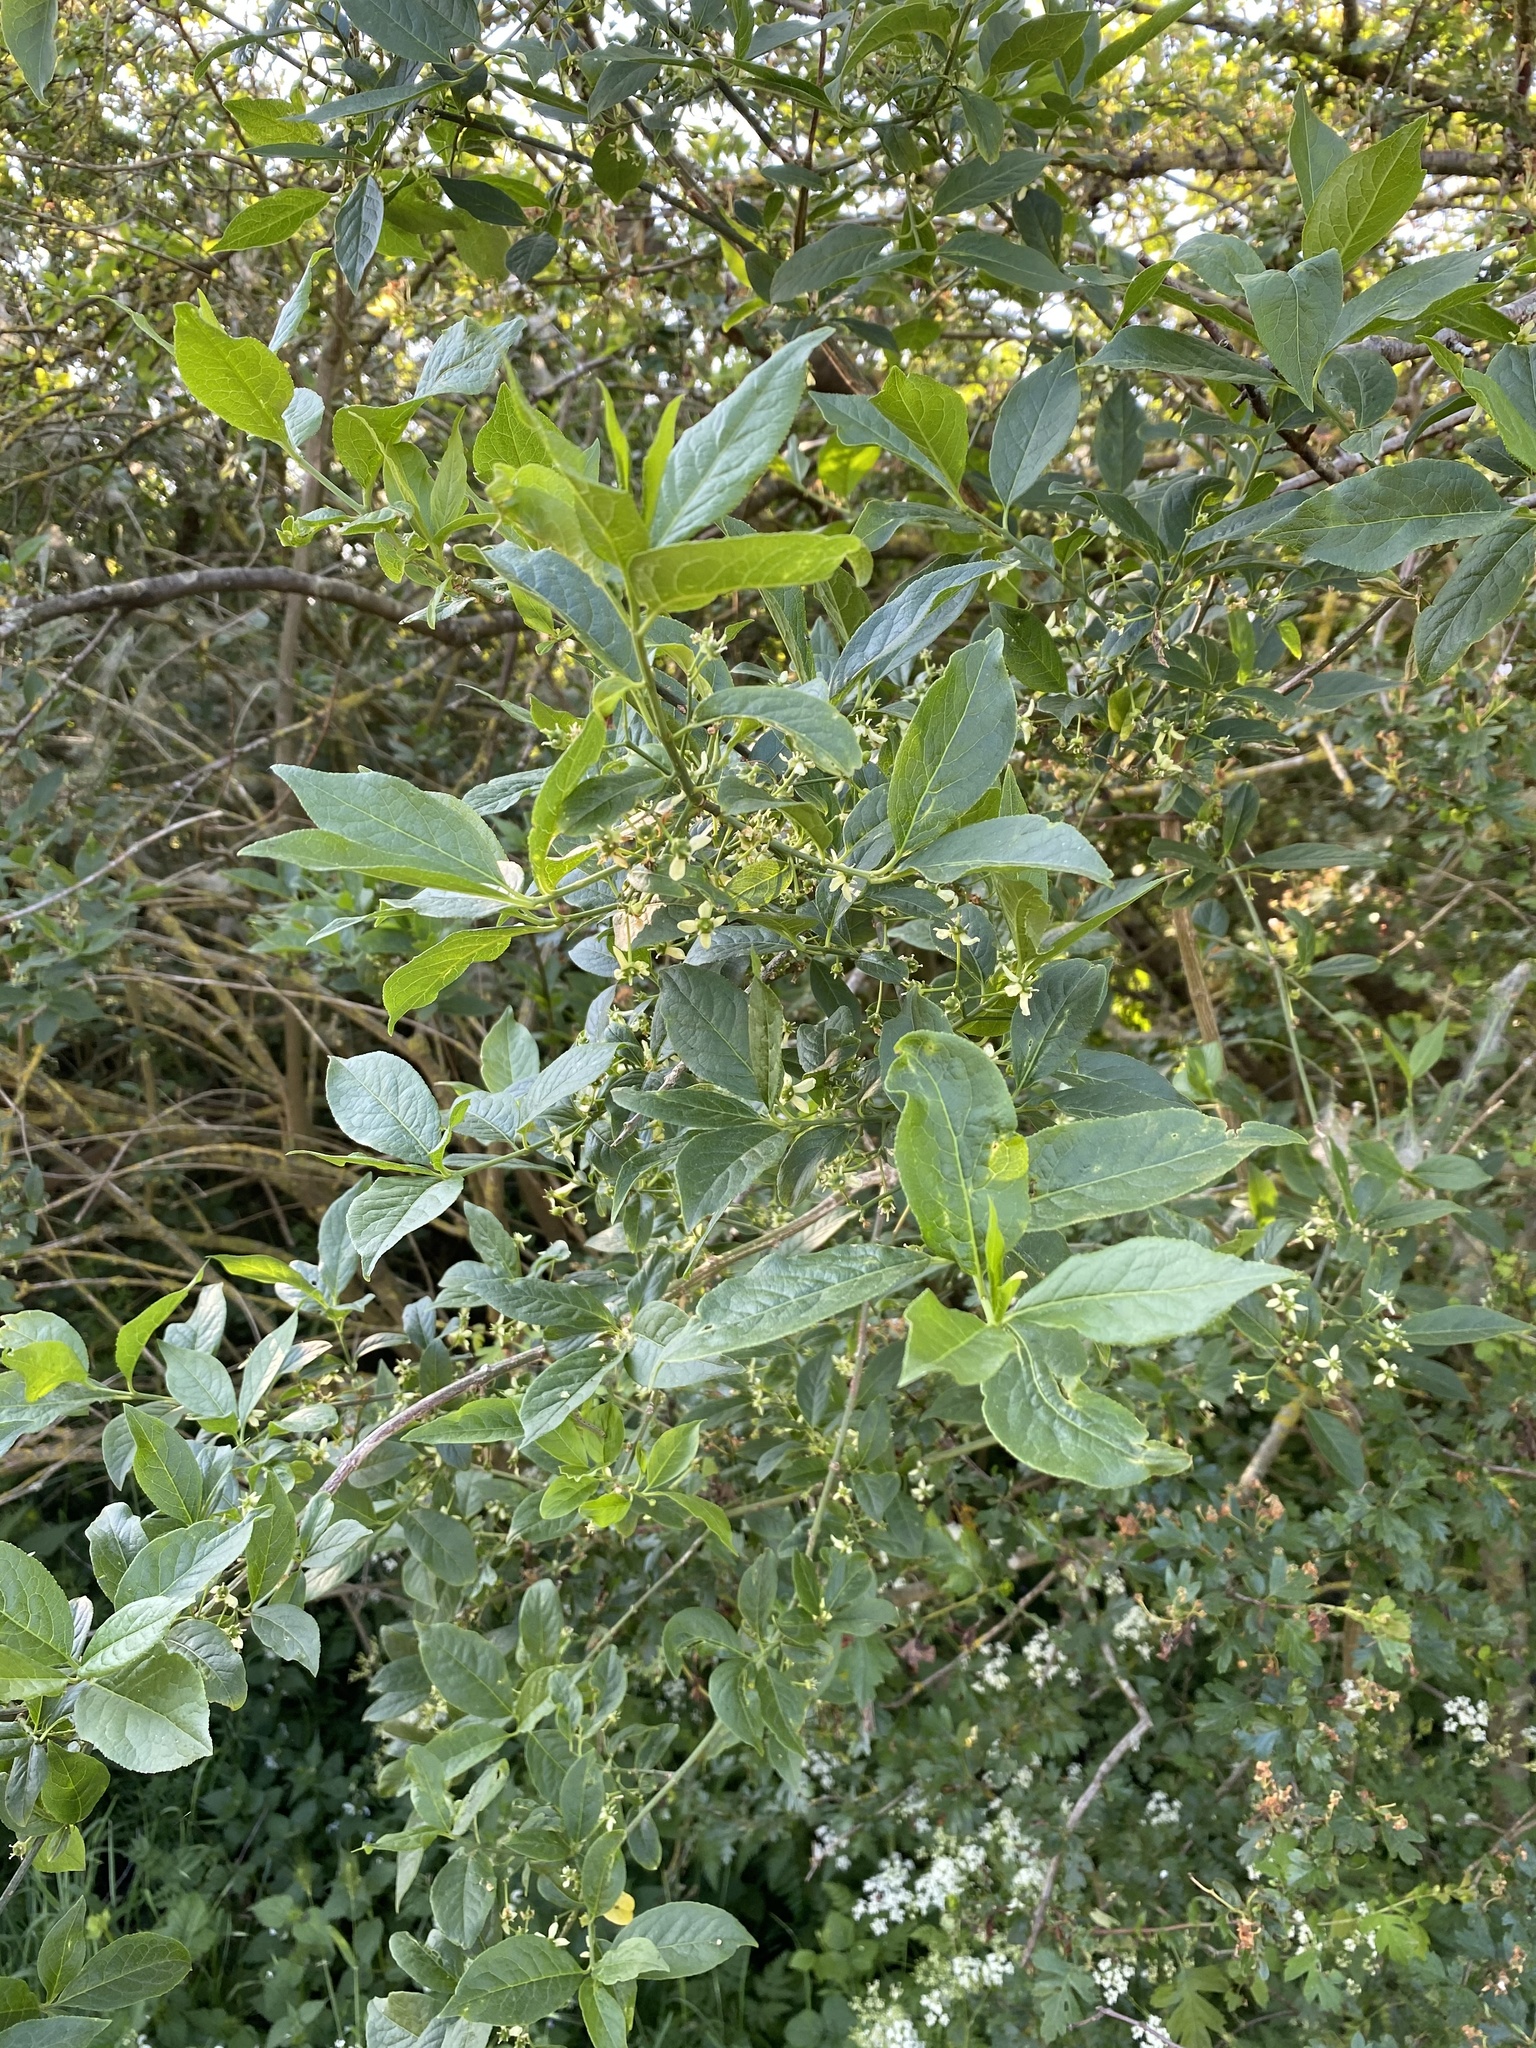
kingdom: Plantae
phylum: Tracheophyta
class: Magnoliopsida
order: Celastrales
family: Celastraceae
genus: Euonymus
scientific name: Euonymus europaeus
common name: Spindle
